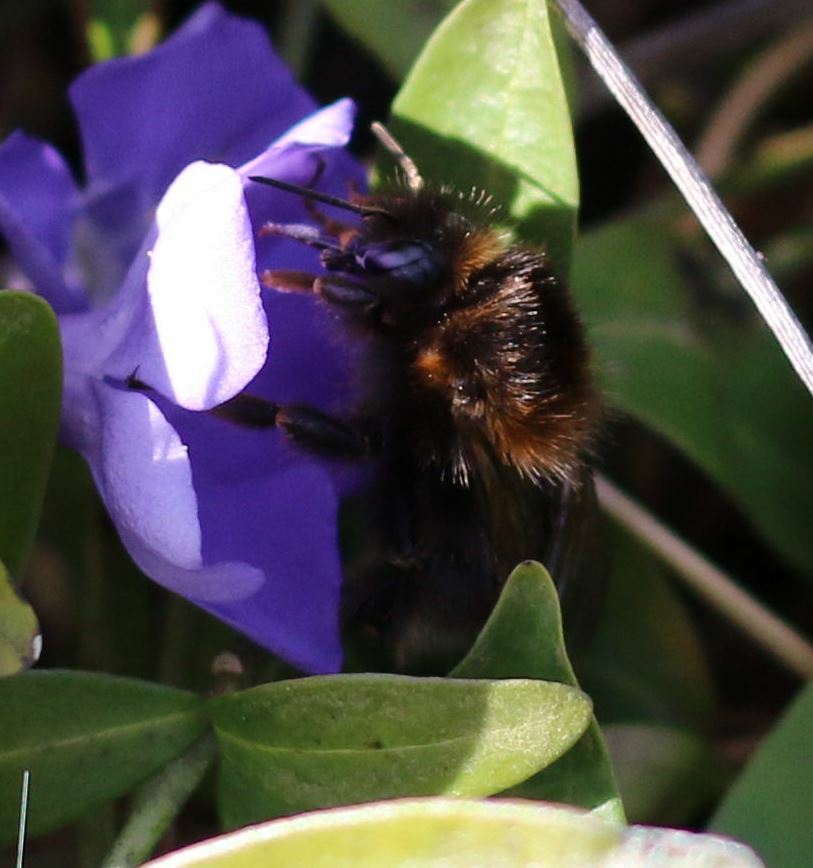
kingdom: Animalia
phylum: Arthropoda
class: Insecta
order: Hymenoptera
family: Apidae
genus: Bombus
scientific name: Bombus hypnorum
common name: New garden bumblebee
